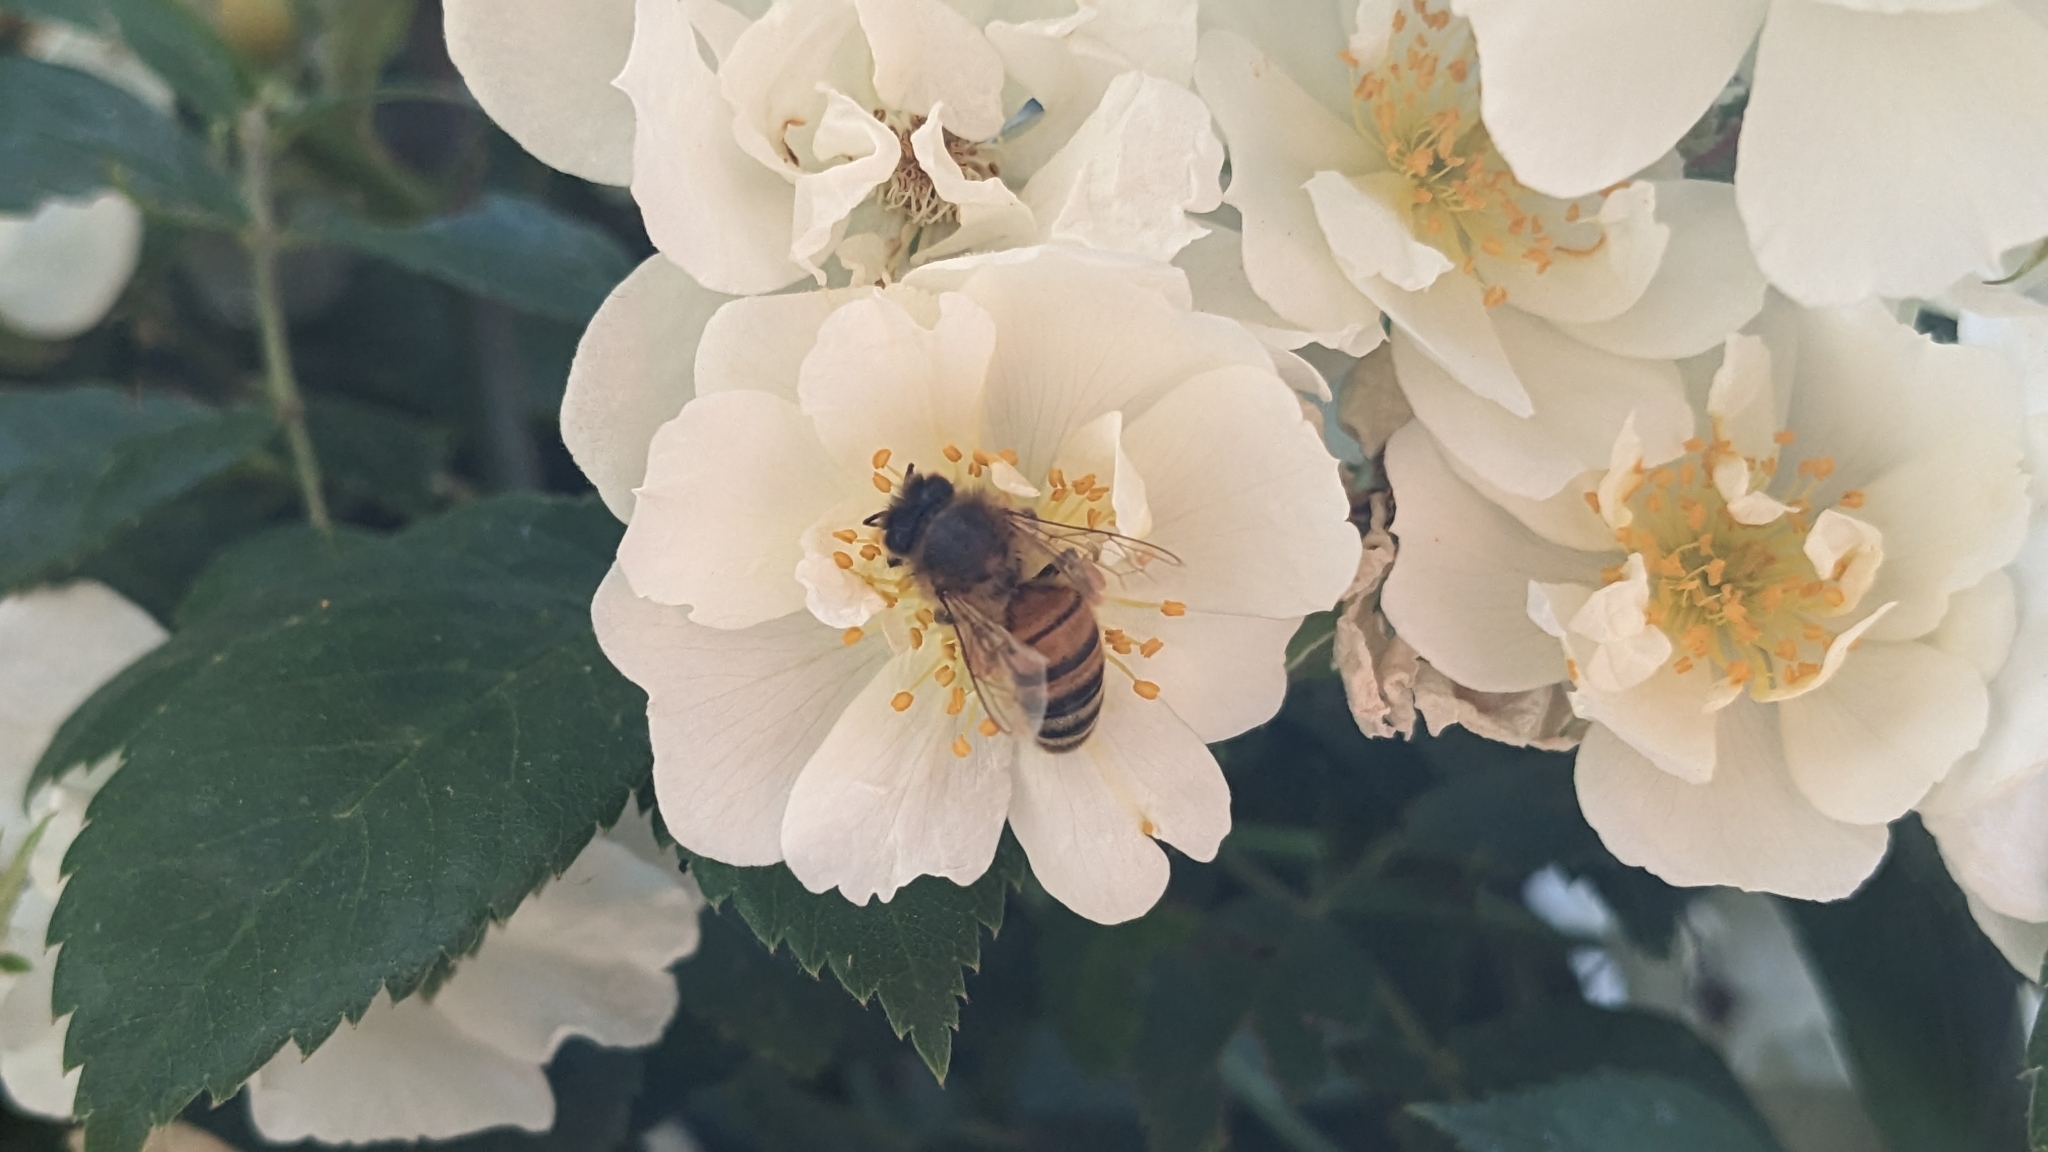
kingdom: Animalia
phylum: Arthropoda
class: Insecta
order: Hymenoptera
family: Apidae
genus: Apis
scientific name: Apis mellifera
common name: Honey bee
